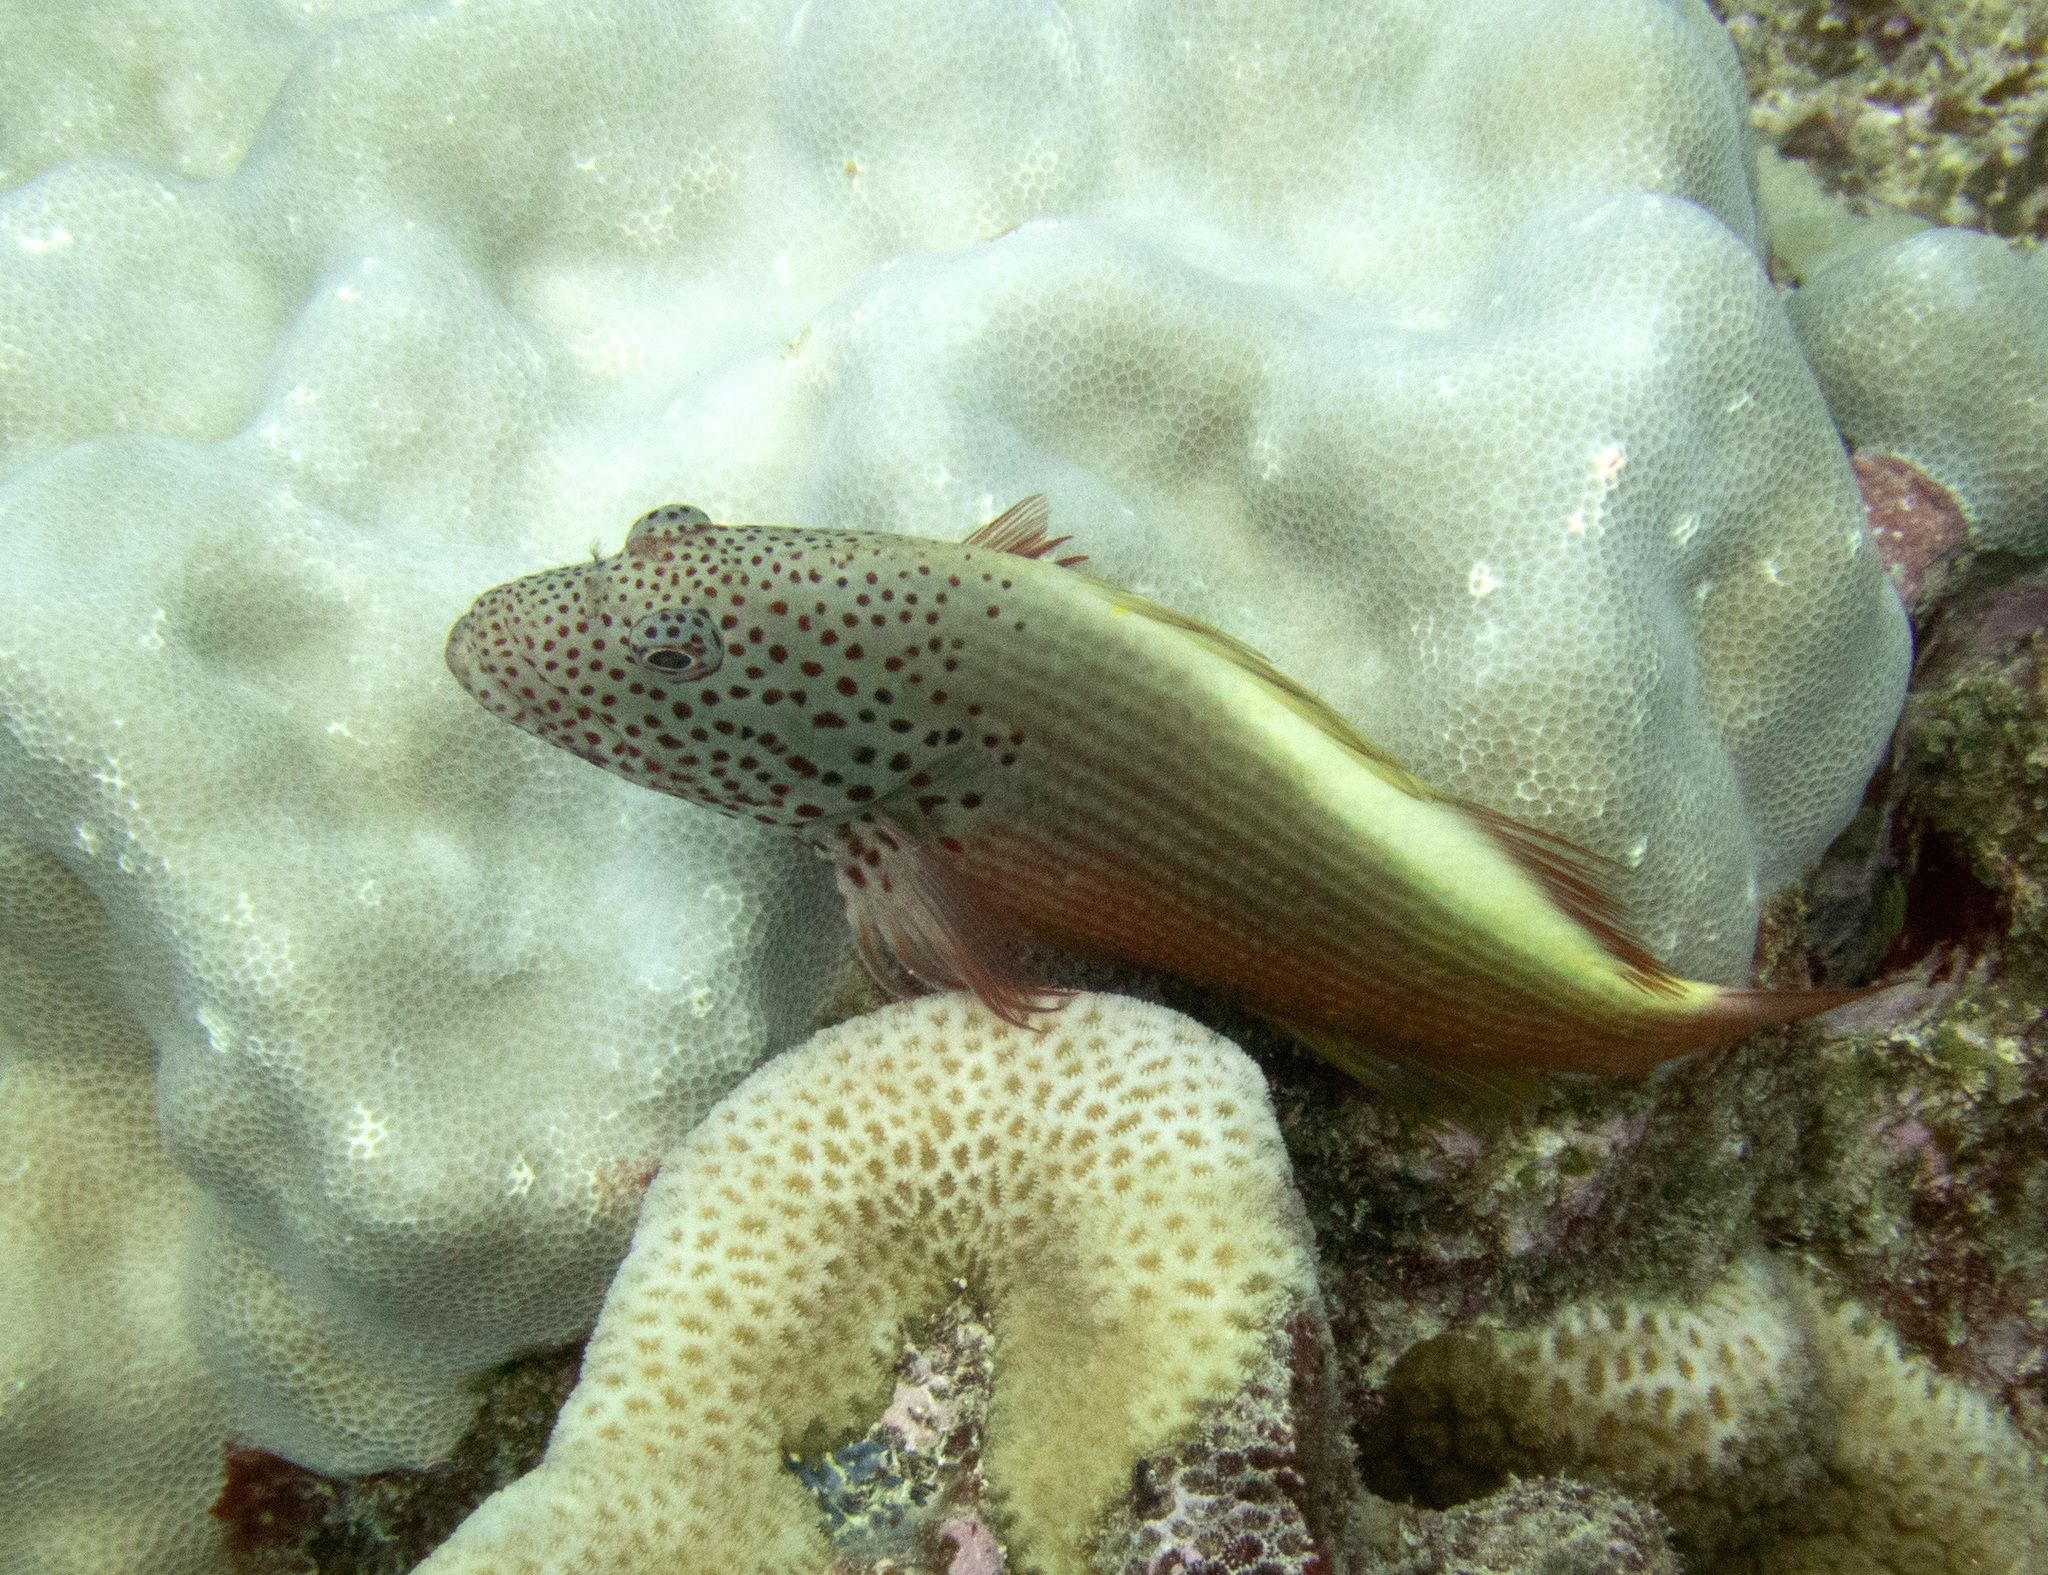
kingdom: Animalia
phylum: Chordata
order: Perciformes
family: Cirrhitidae
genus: Paracirrhites
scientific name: Paracirrhites forsteri
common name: Freckled hawkfish
